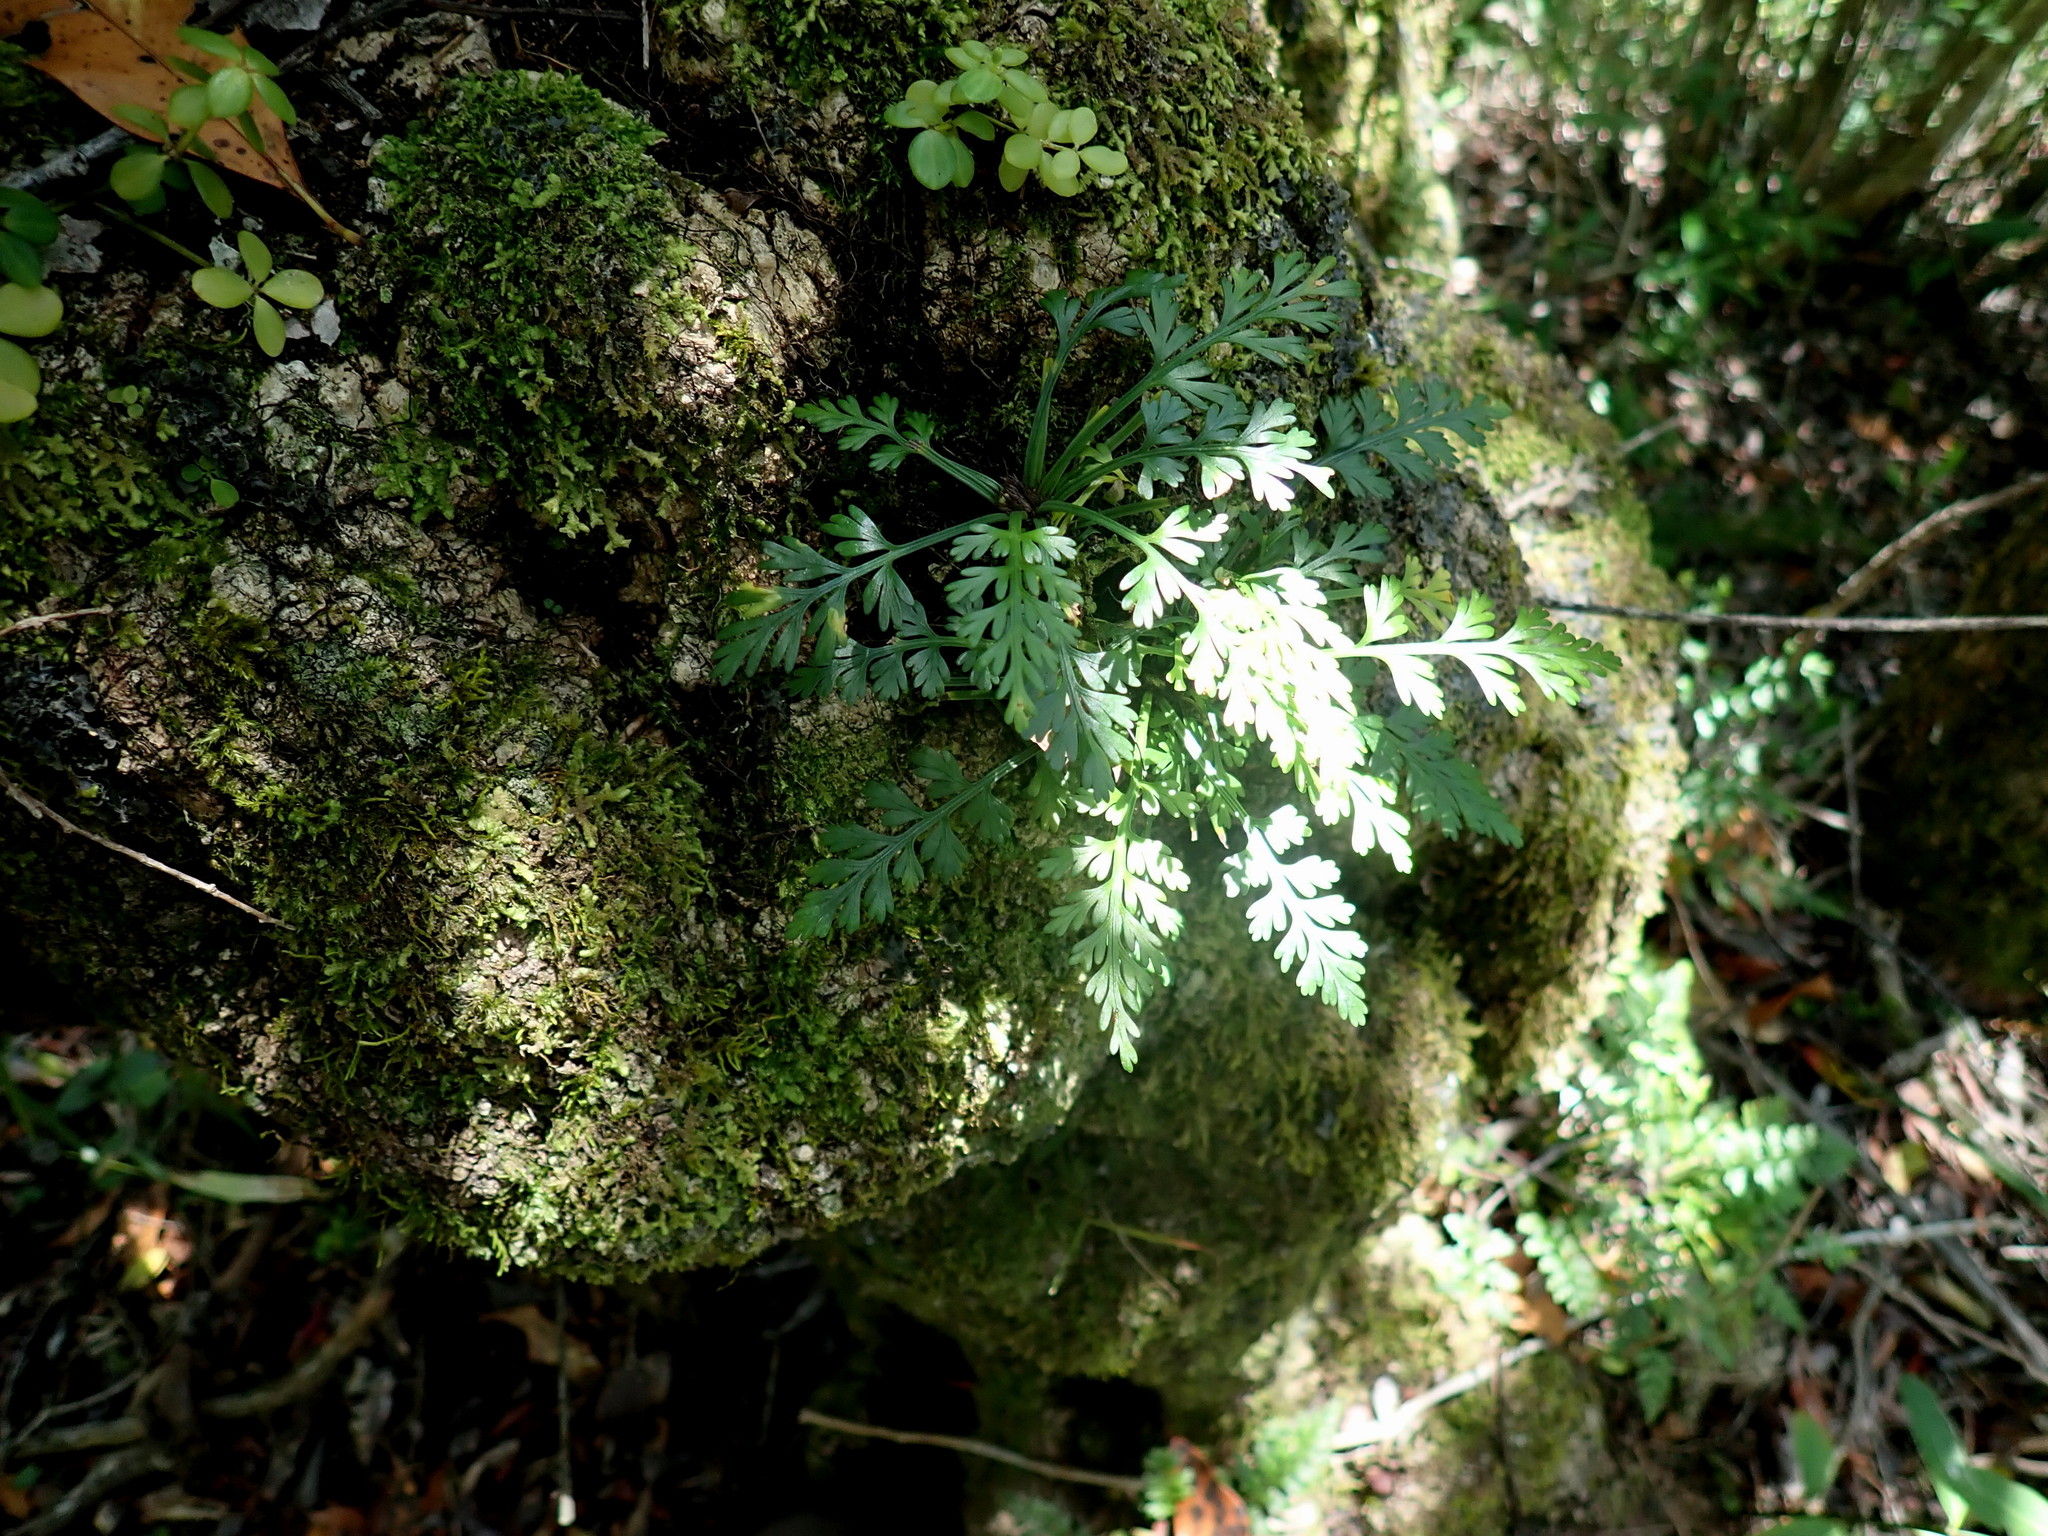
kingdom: Plantae
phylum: Tracheophyta
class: Polypodiopsida
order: Polypodiales
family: Aspleniaceae
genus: Asplenium
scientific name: Asplenium rutifolium
